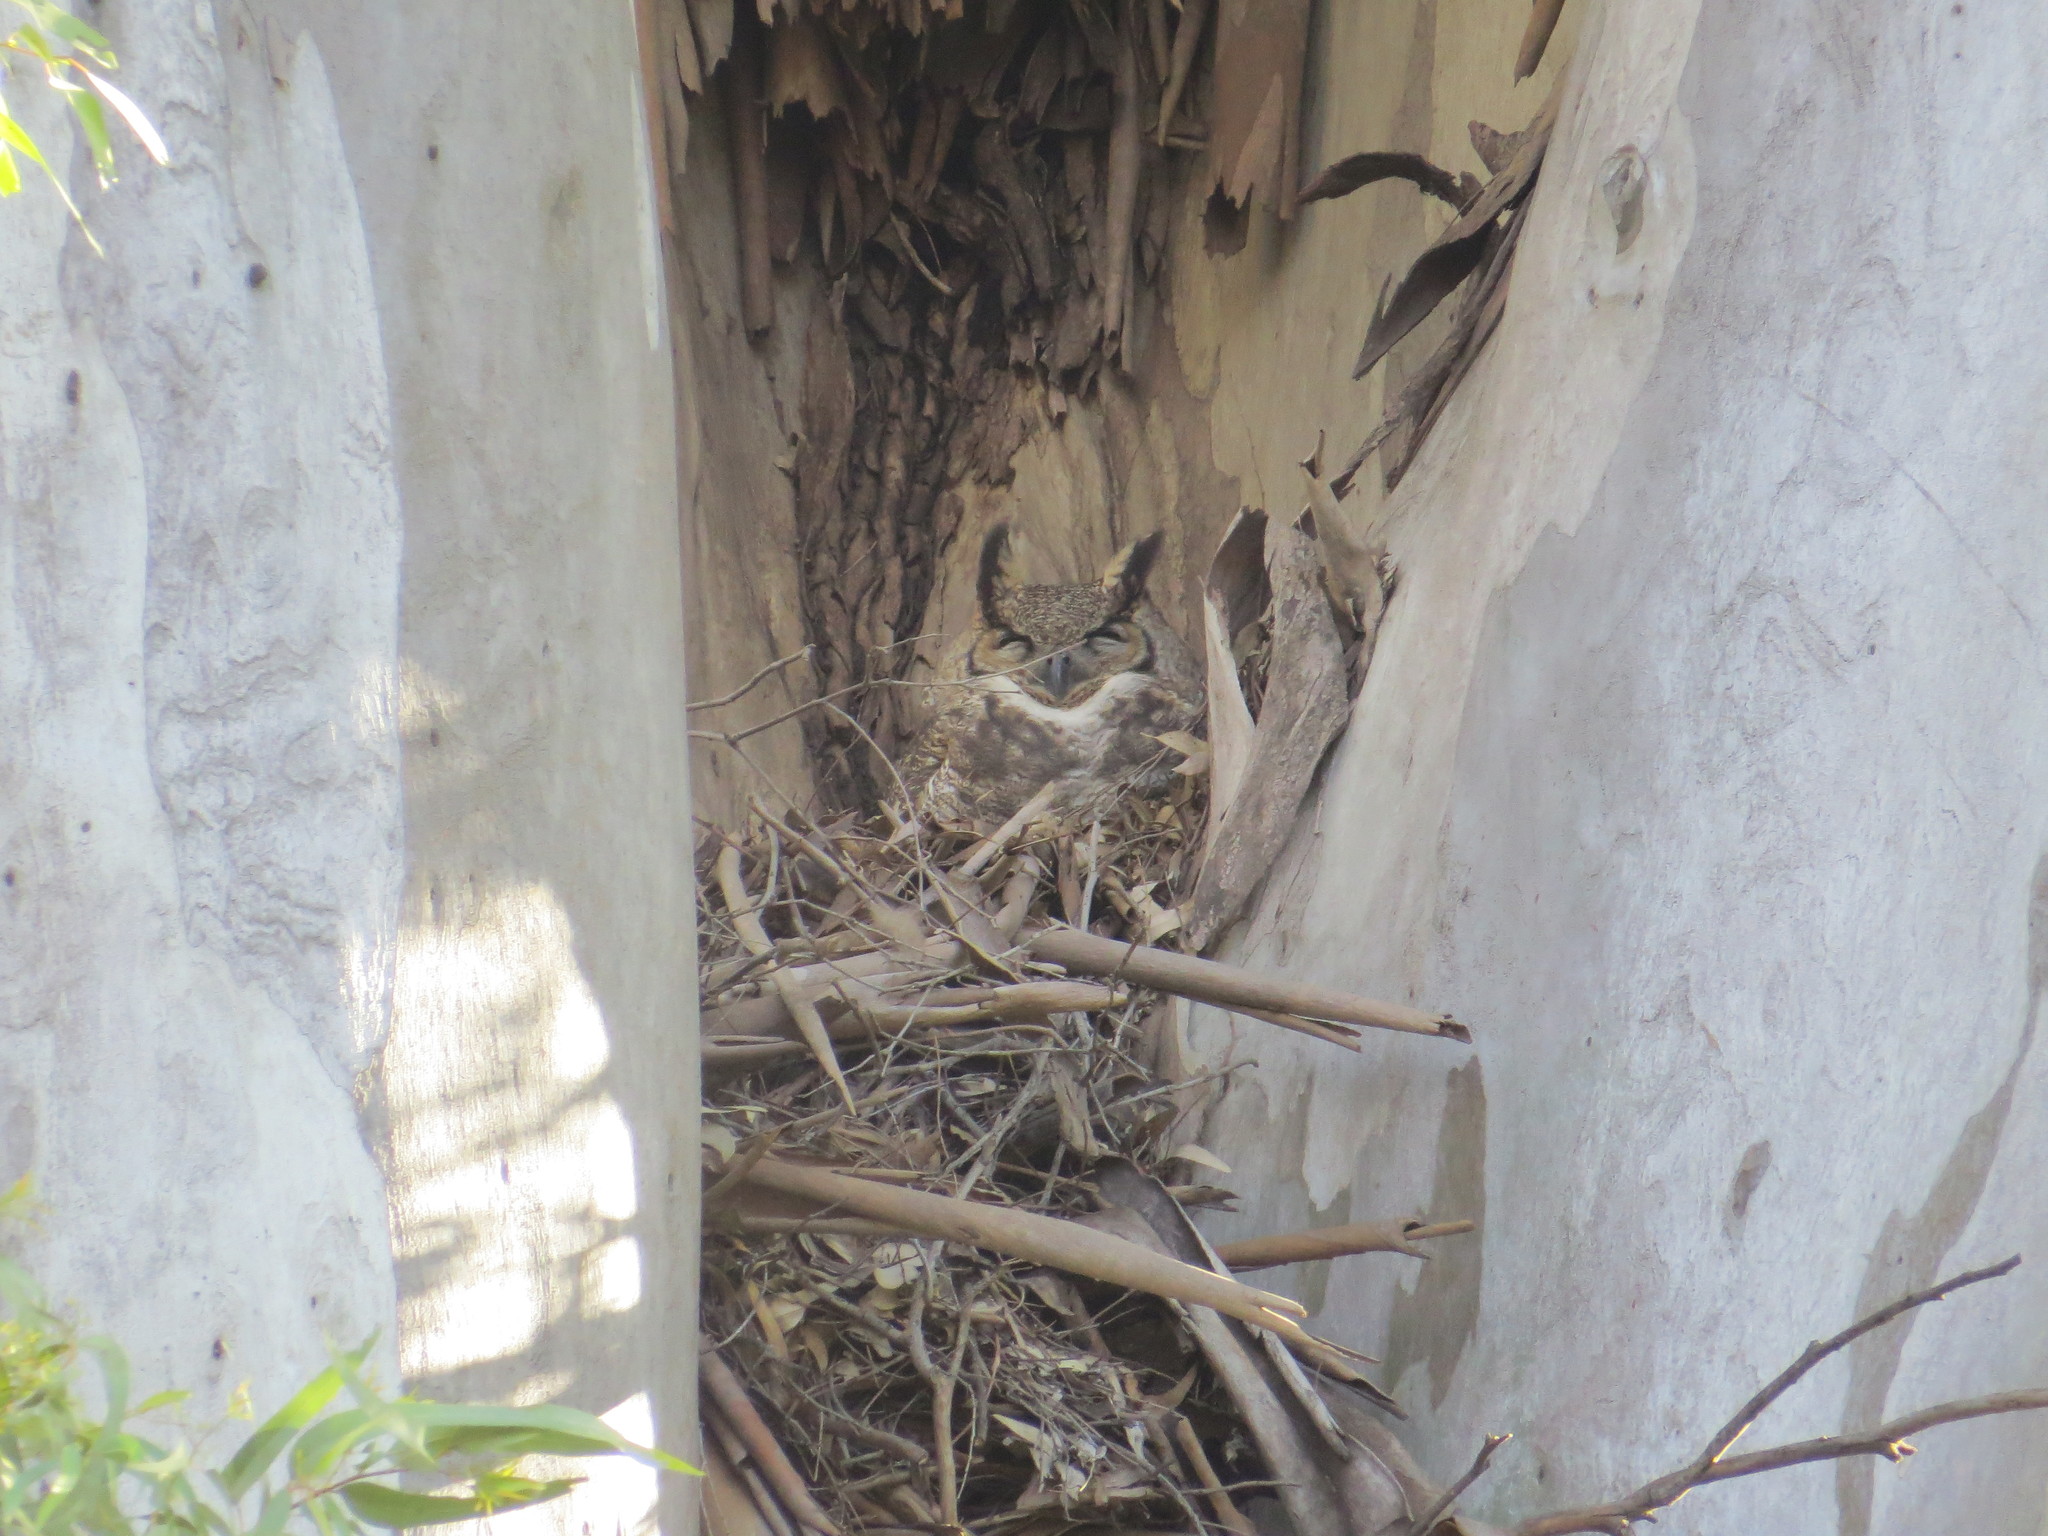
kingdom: Animalia
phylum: Chordata
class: Aves
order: Strigiformes
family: Strigidae
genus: Bubo
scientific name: Bubo virginianus
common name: Great horned owl
